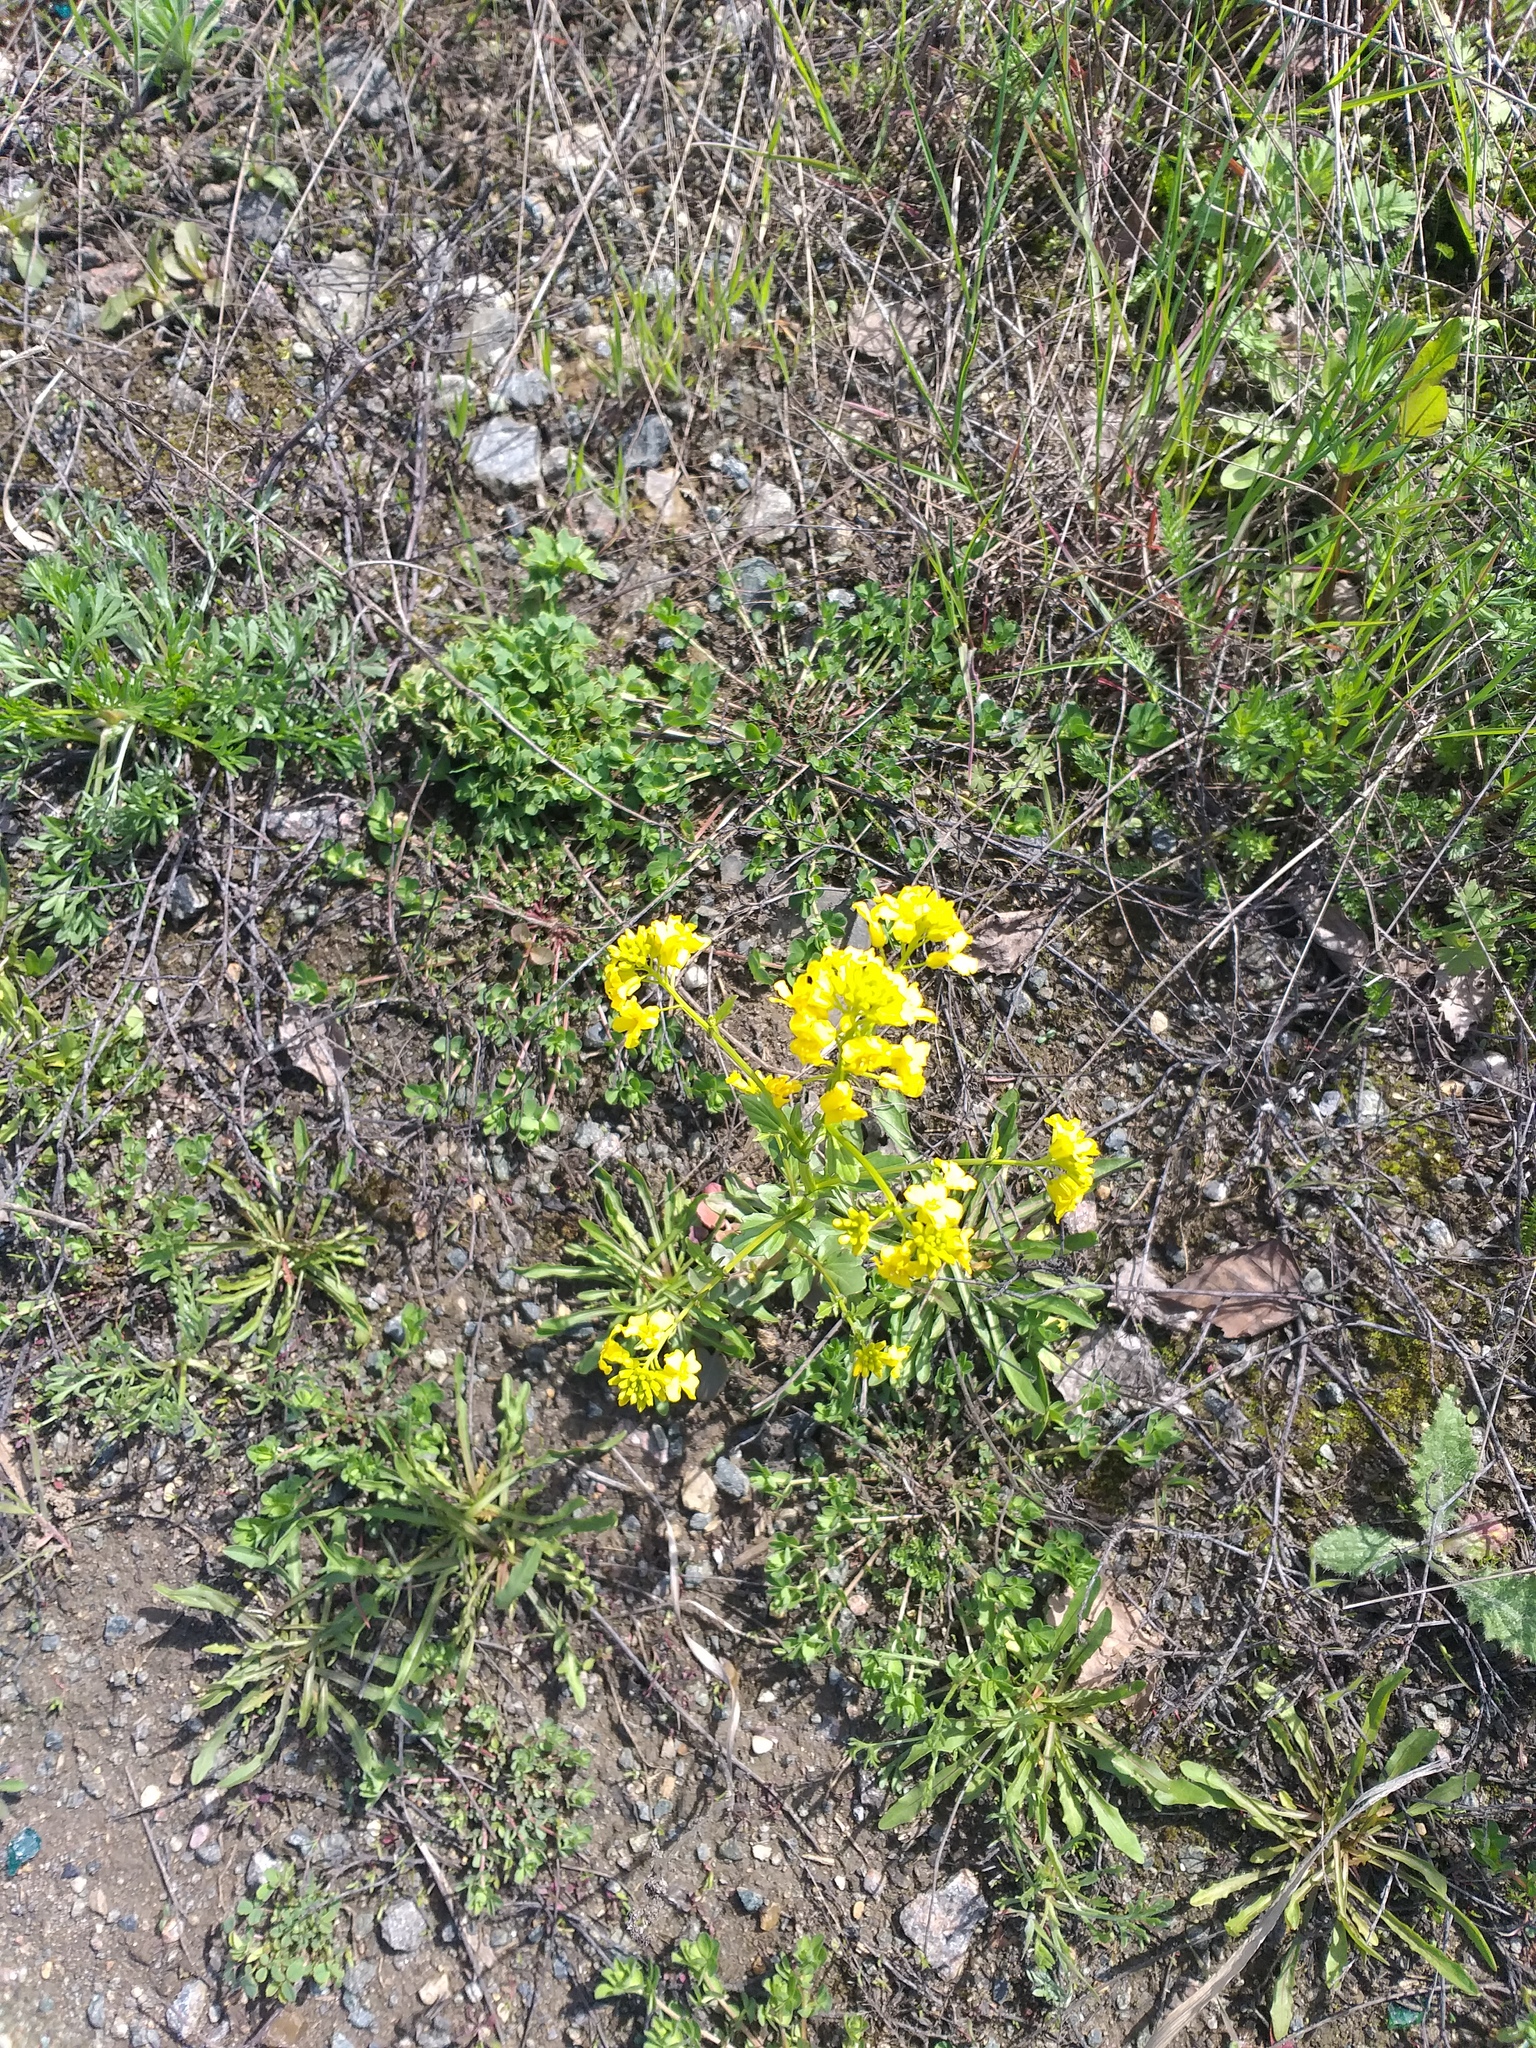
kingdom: Plantae
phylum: Tracheophyta
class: Magnoliopsida
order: Brassicales
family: Brassicaceae
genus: Barbarea
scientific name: Barbarea vulgaris
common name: Cressy-greens
